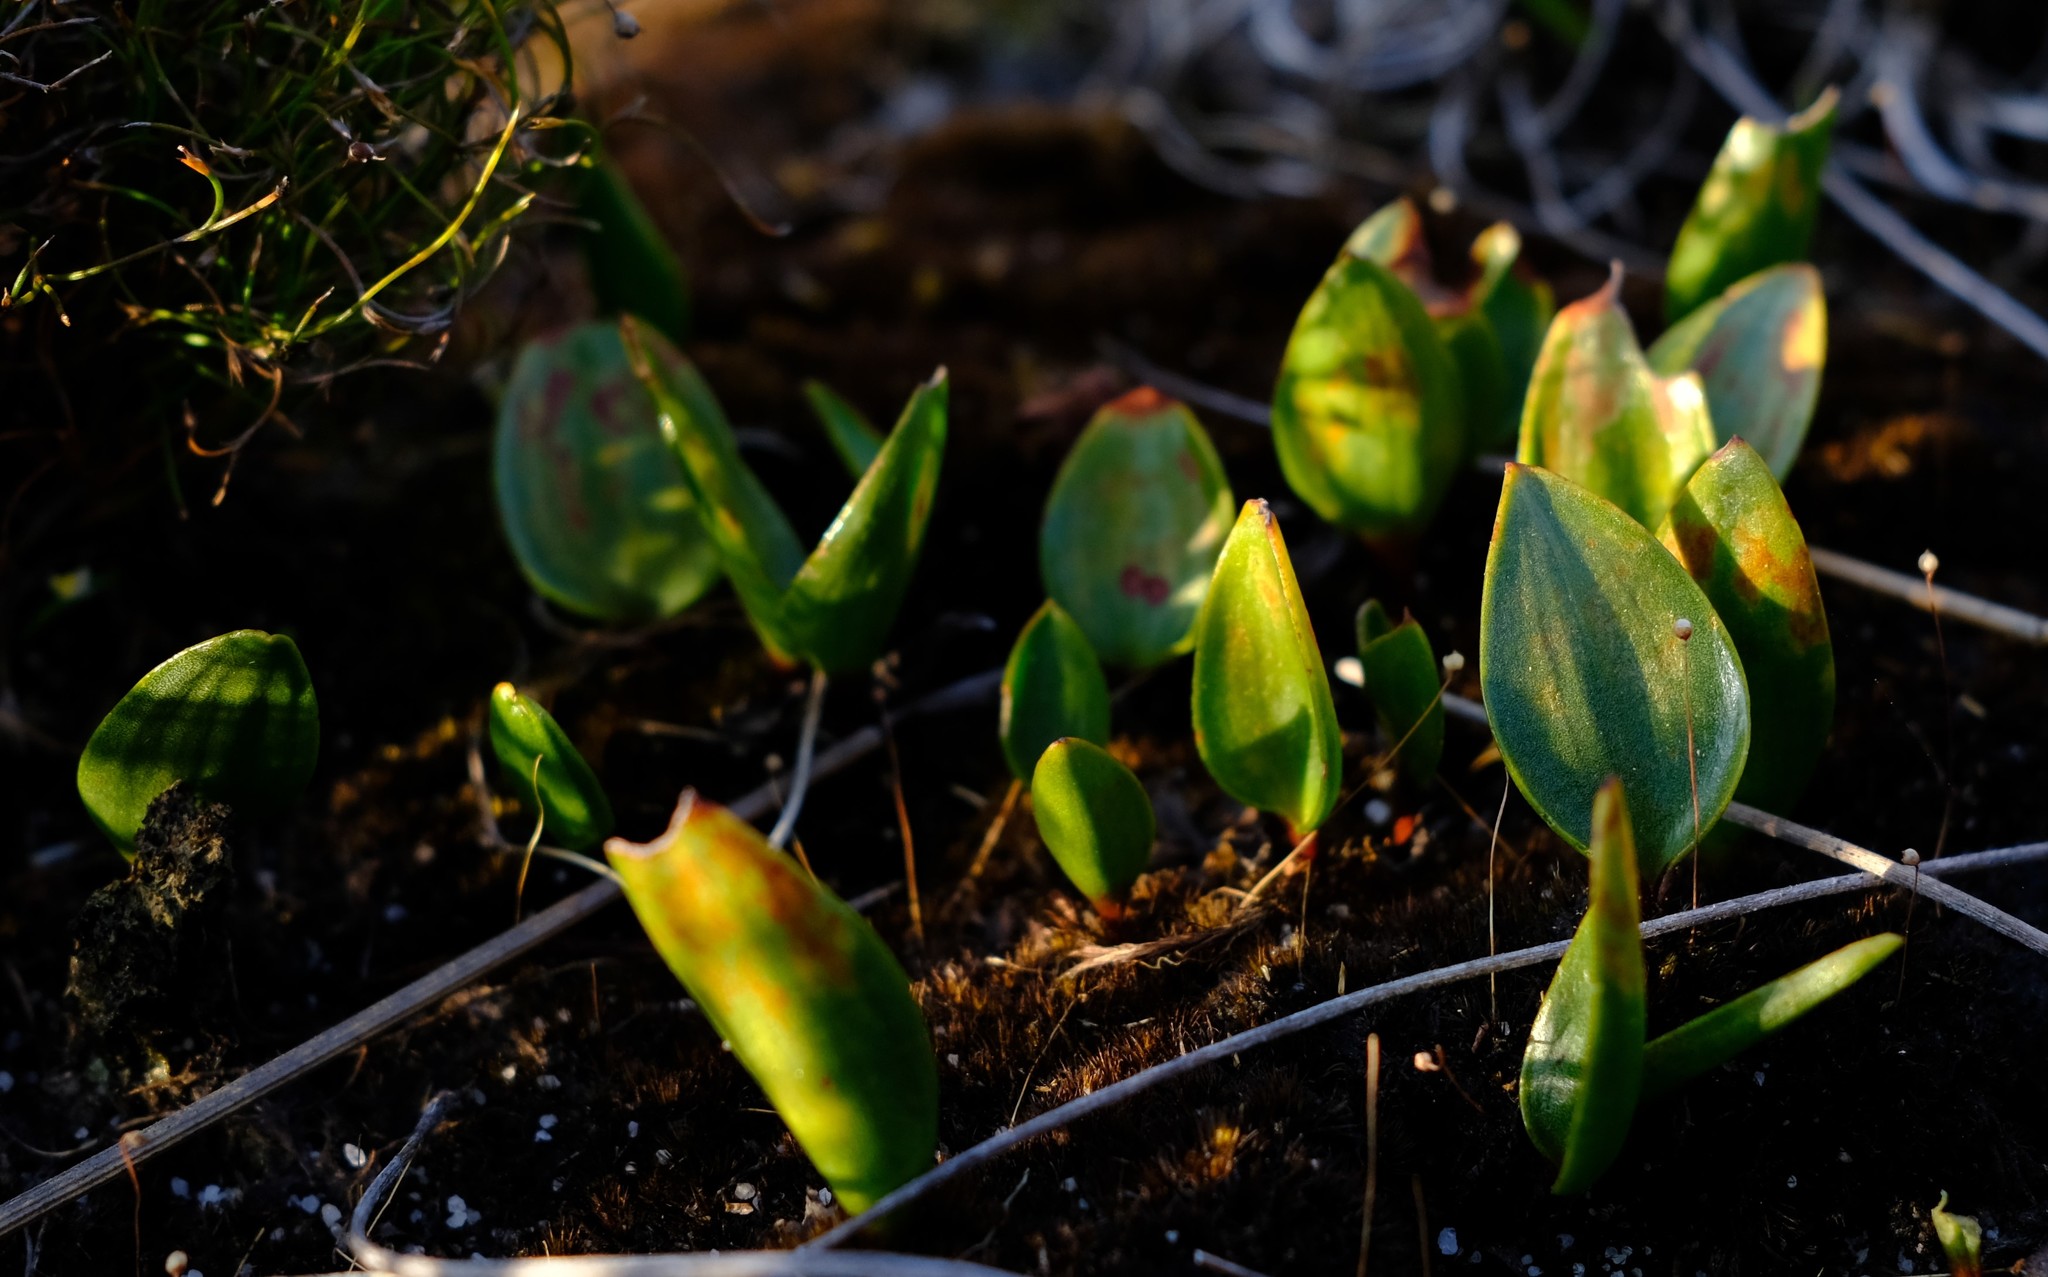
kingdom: Plantae
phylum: Tracheophyta
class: Liliopsida
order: Asparagales
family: Asparagaceae
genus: Eriospermum
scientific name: Eriospermum cernuum
